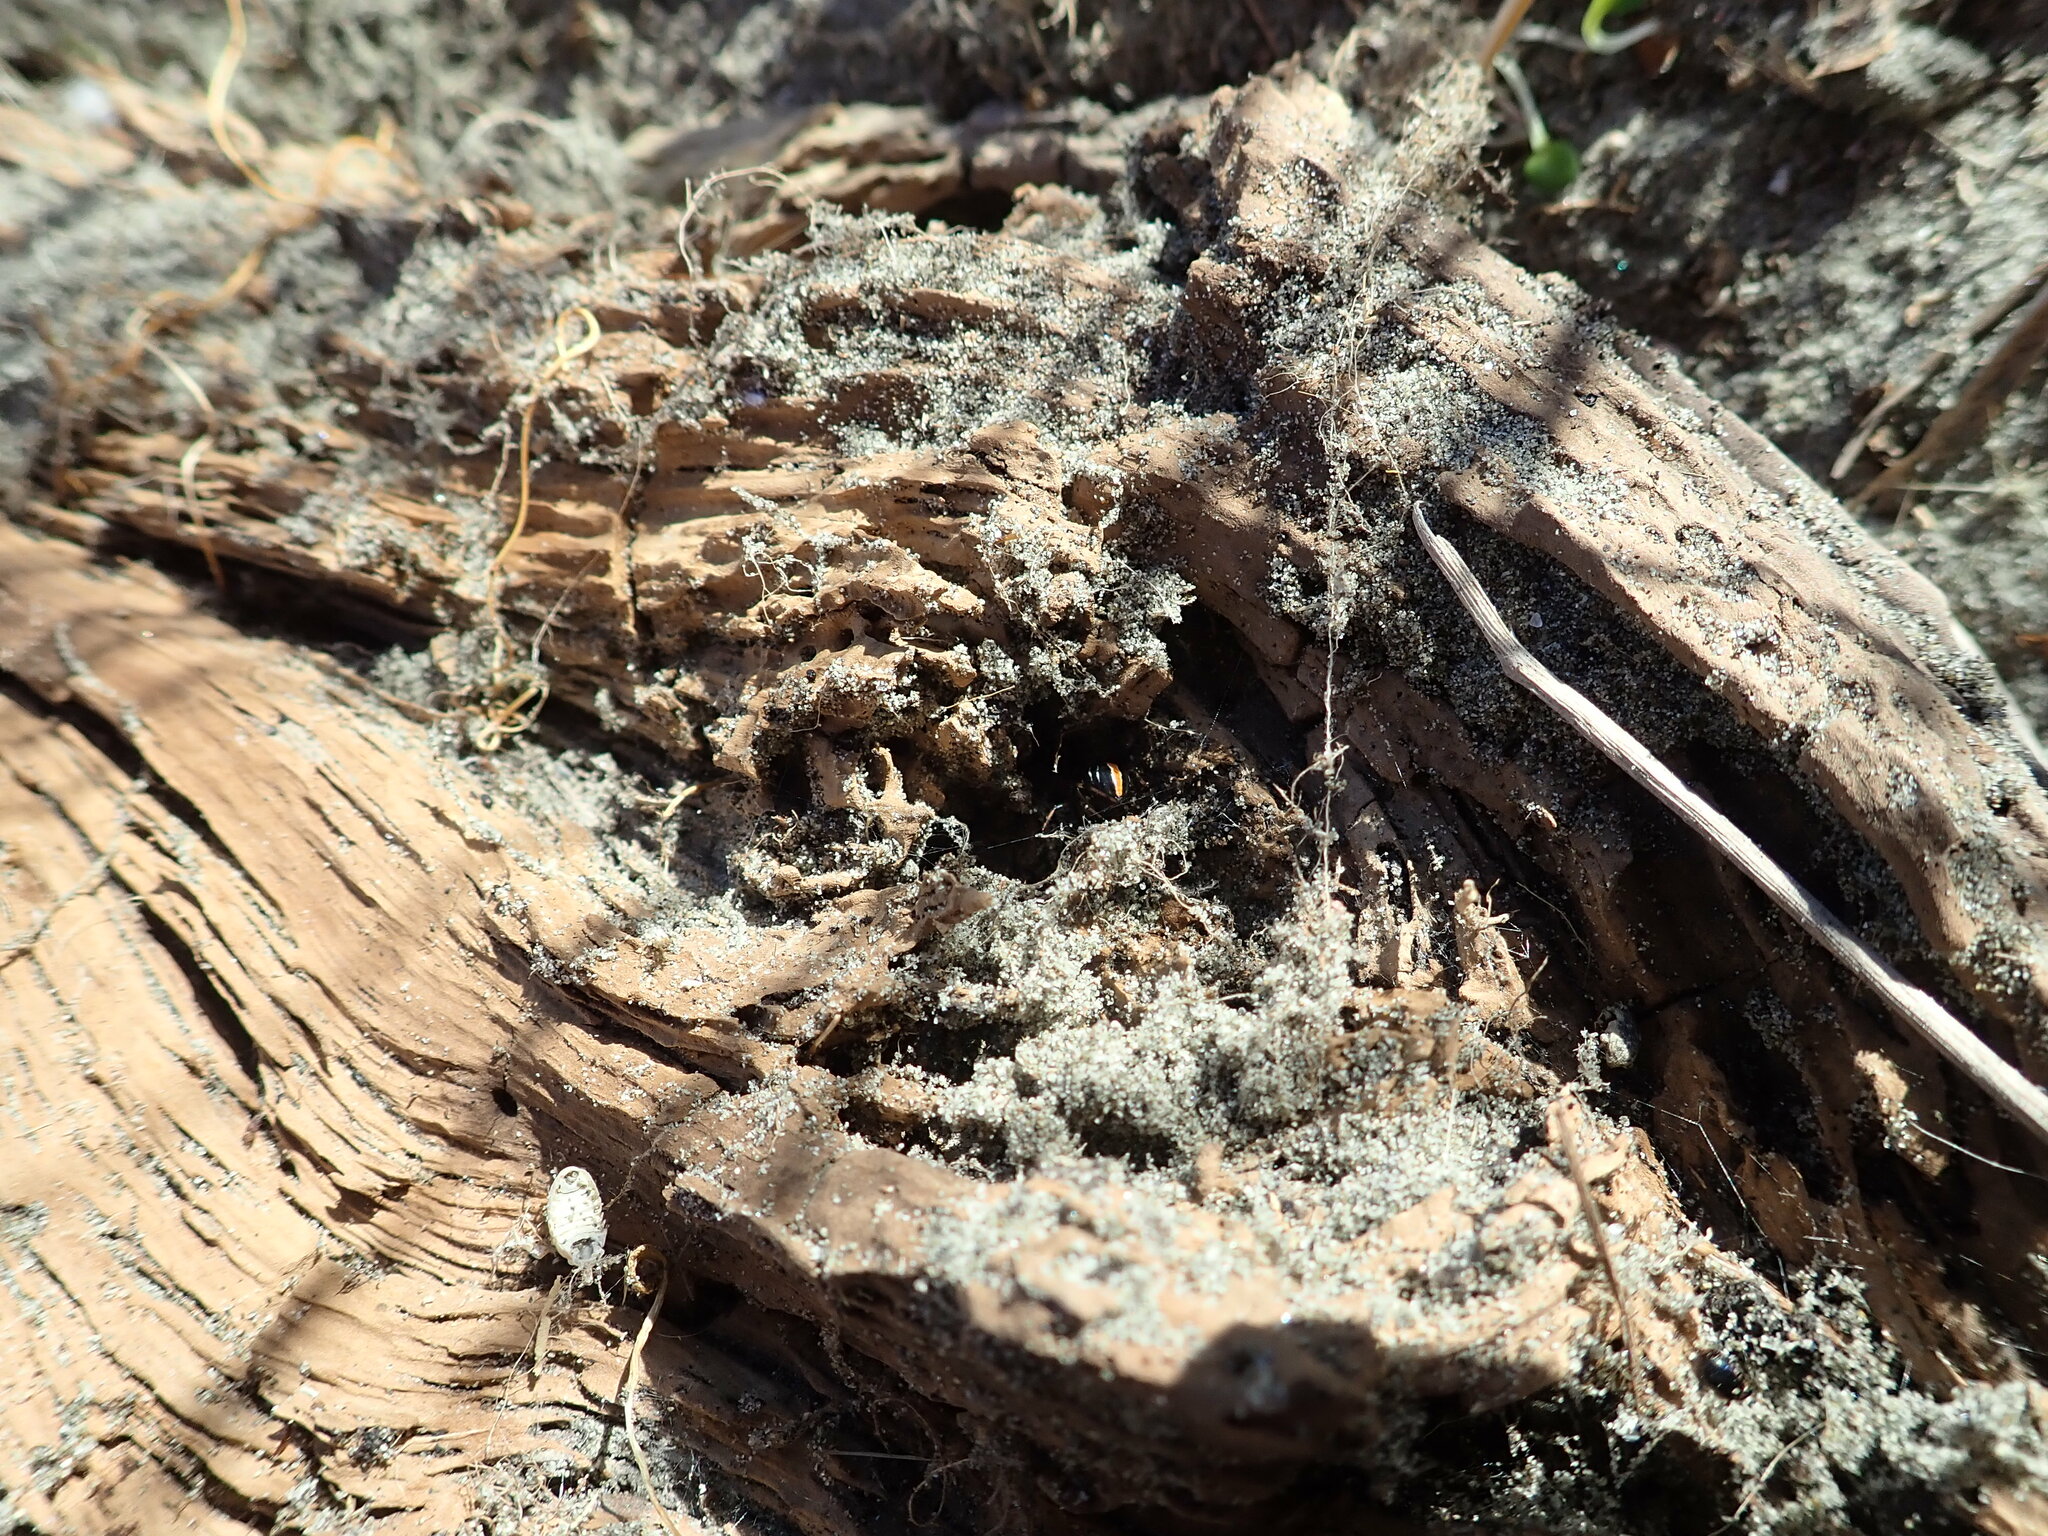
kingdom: Animalia
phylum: Arthropoda
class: Arachnida
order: Araneae
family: Theridiidae
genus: Latrodectus
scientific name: Latrodectus katipo
